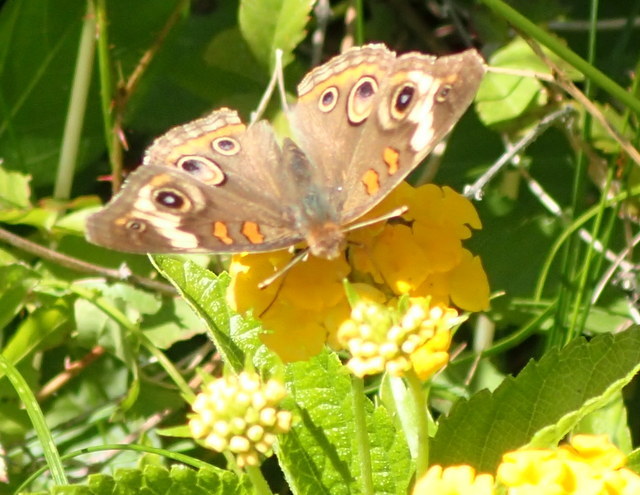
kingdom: Animalia
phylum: Arthropoda
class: Insecta
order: Lepidoptera
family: Nymphalidae
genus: Junonia
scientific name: Junonia coenia
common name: Common buckeye
